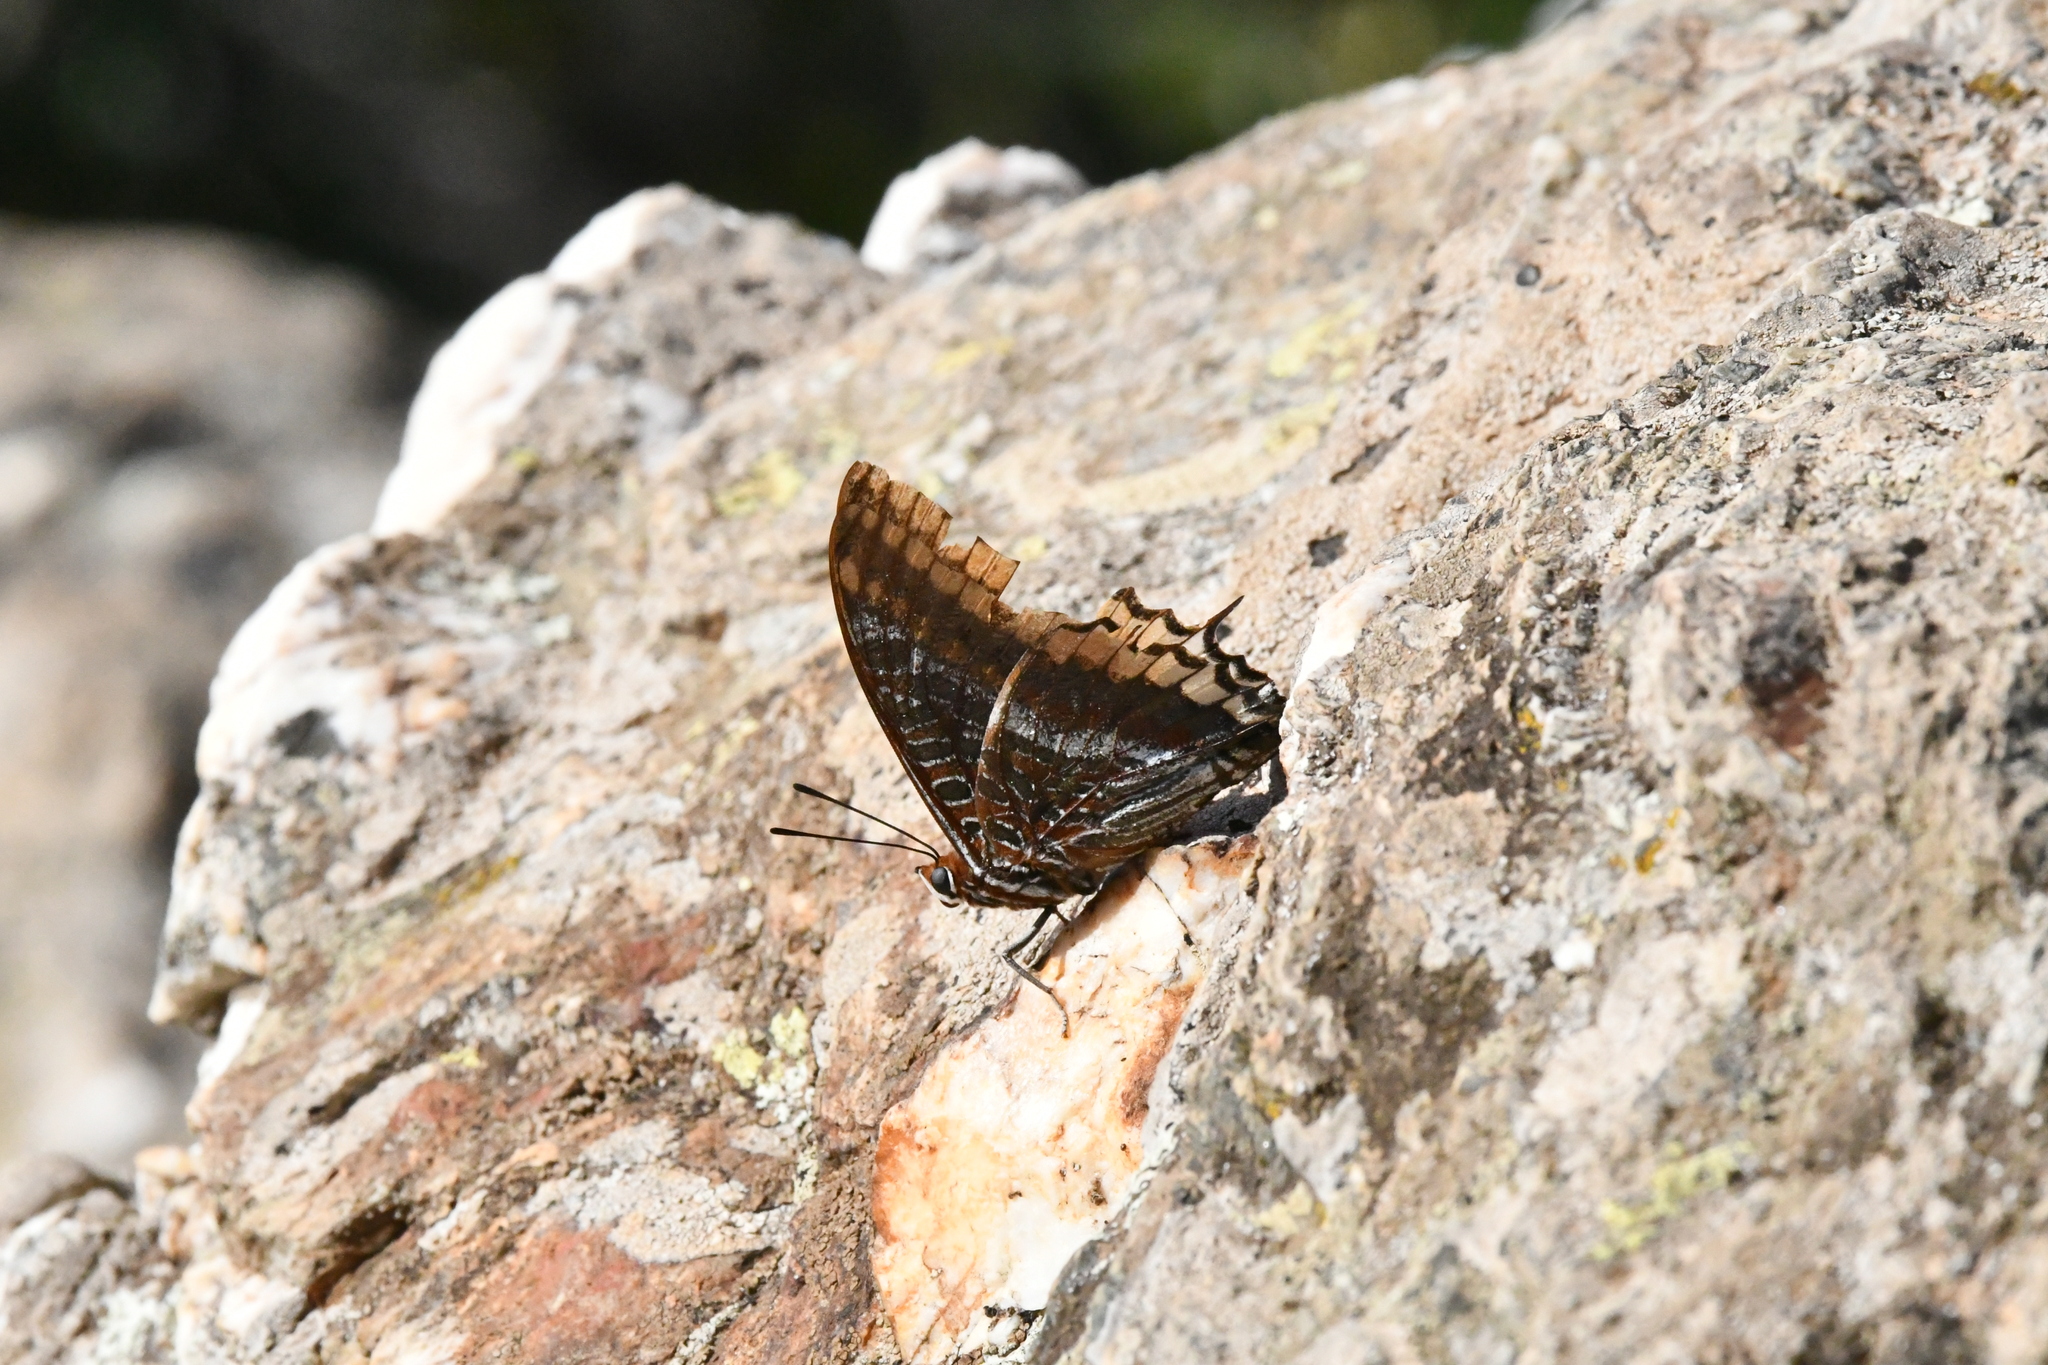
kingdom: Animalia
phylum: Arthropoda
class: Insecta
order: Lepidoptera
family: Nymphalidae
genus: Charaxes
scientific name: Charaxes jasius
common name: Two tailed pasha
